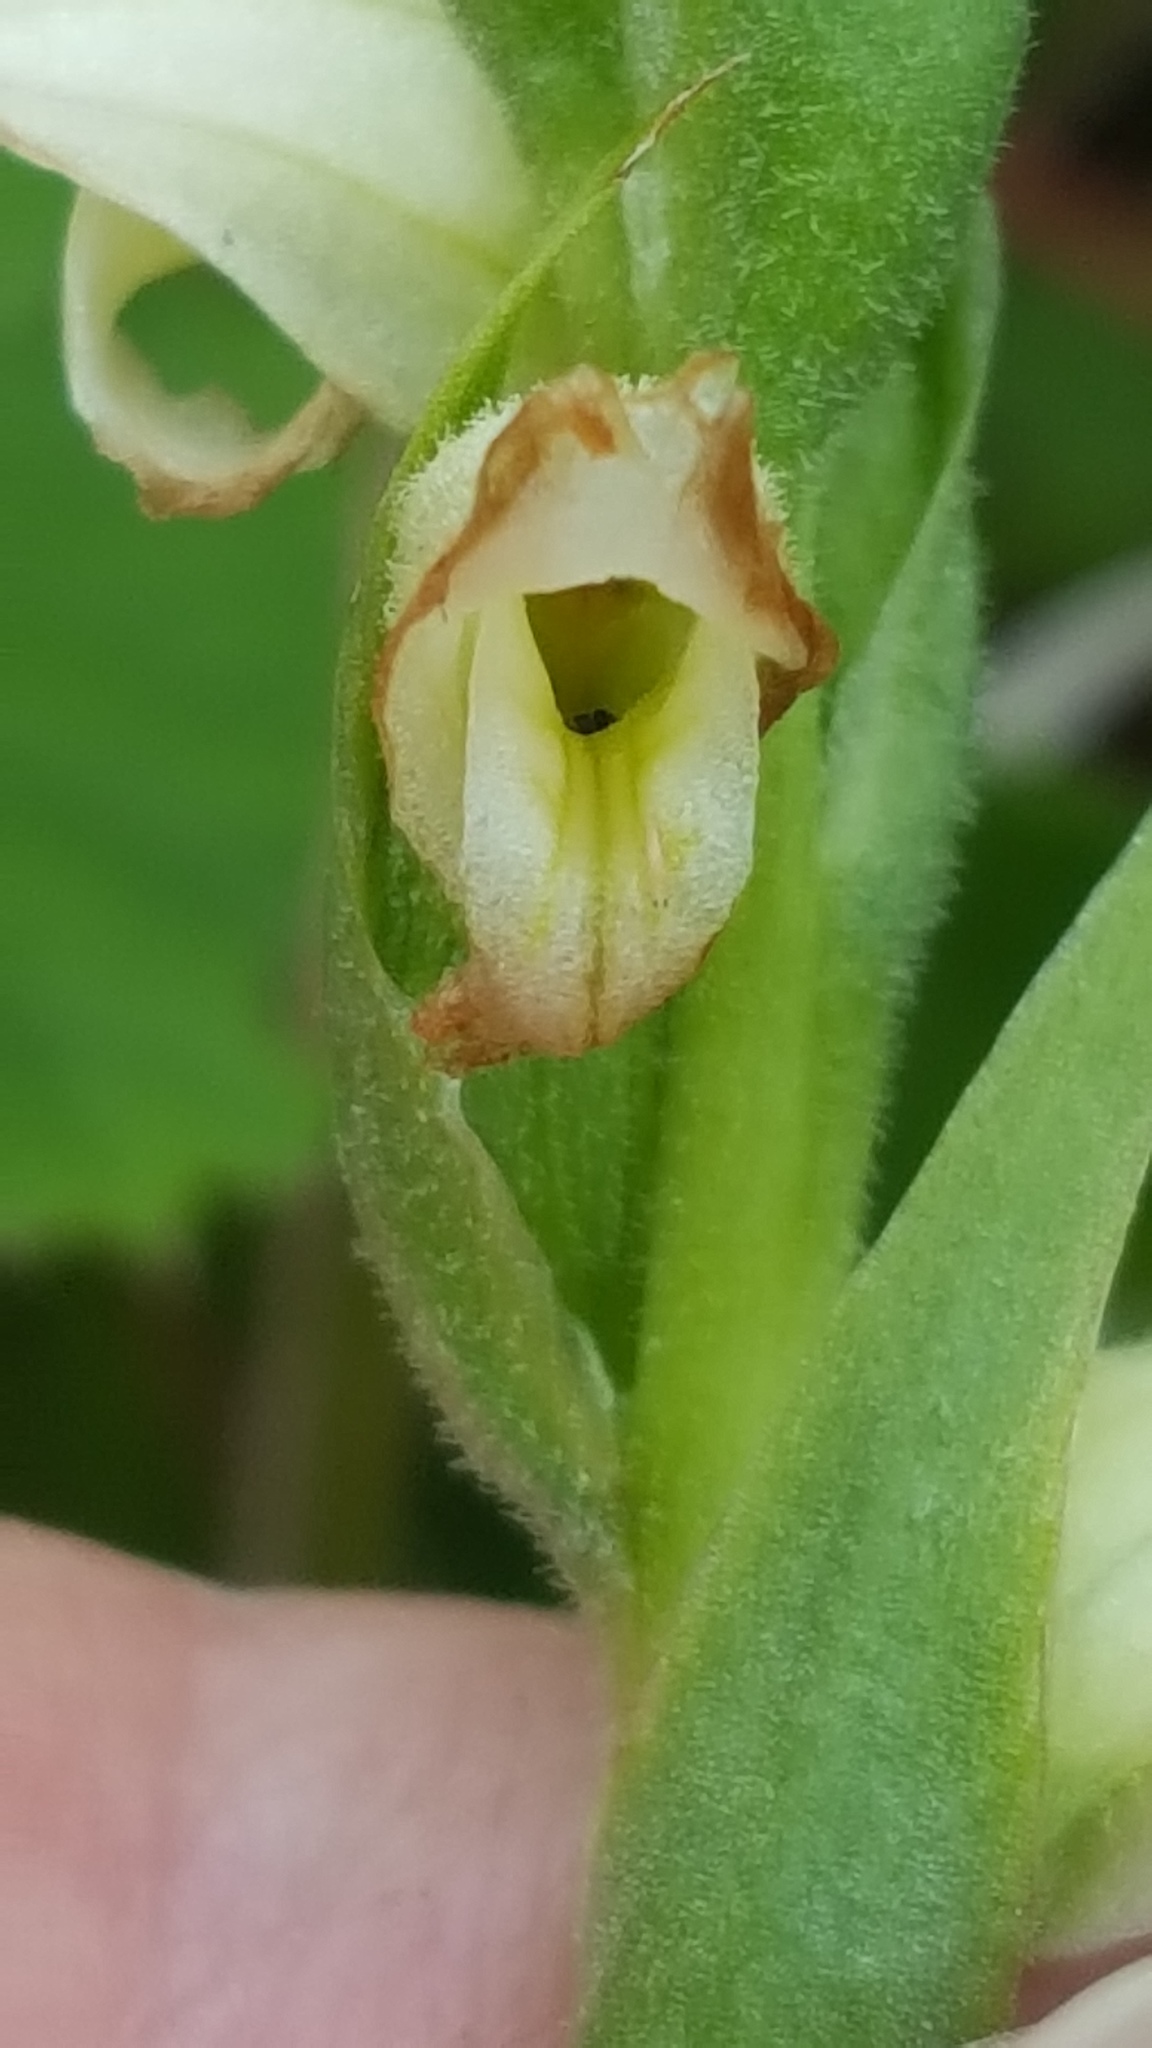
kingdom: Plantae
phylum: Tracheophyta
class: Liliopsida
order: Asparagales
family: Orchidaceae
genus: Spiranthes
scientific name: Spiranthes romanzoffiana
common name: Irish lady's-tresses
